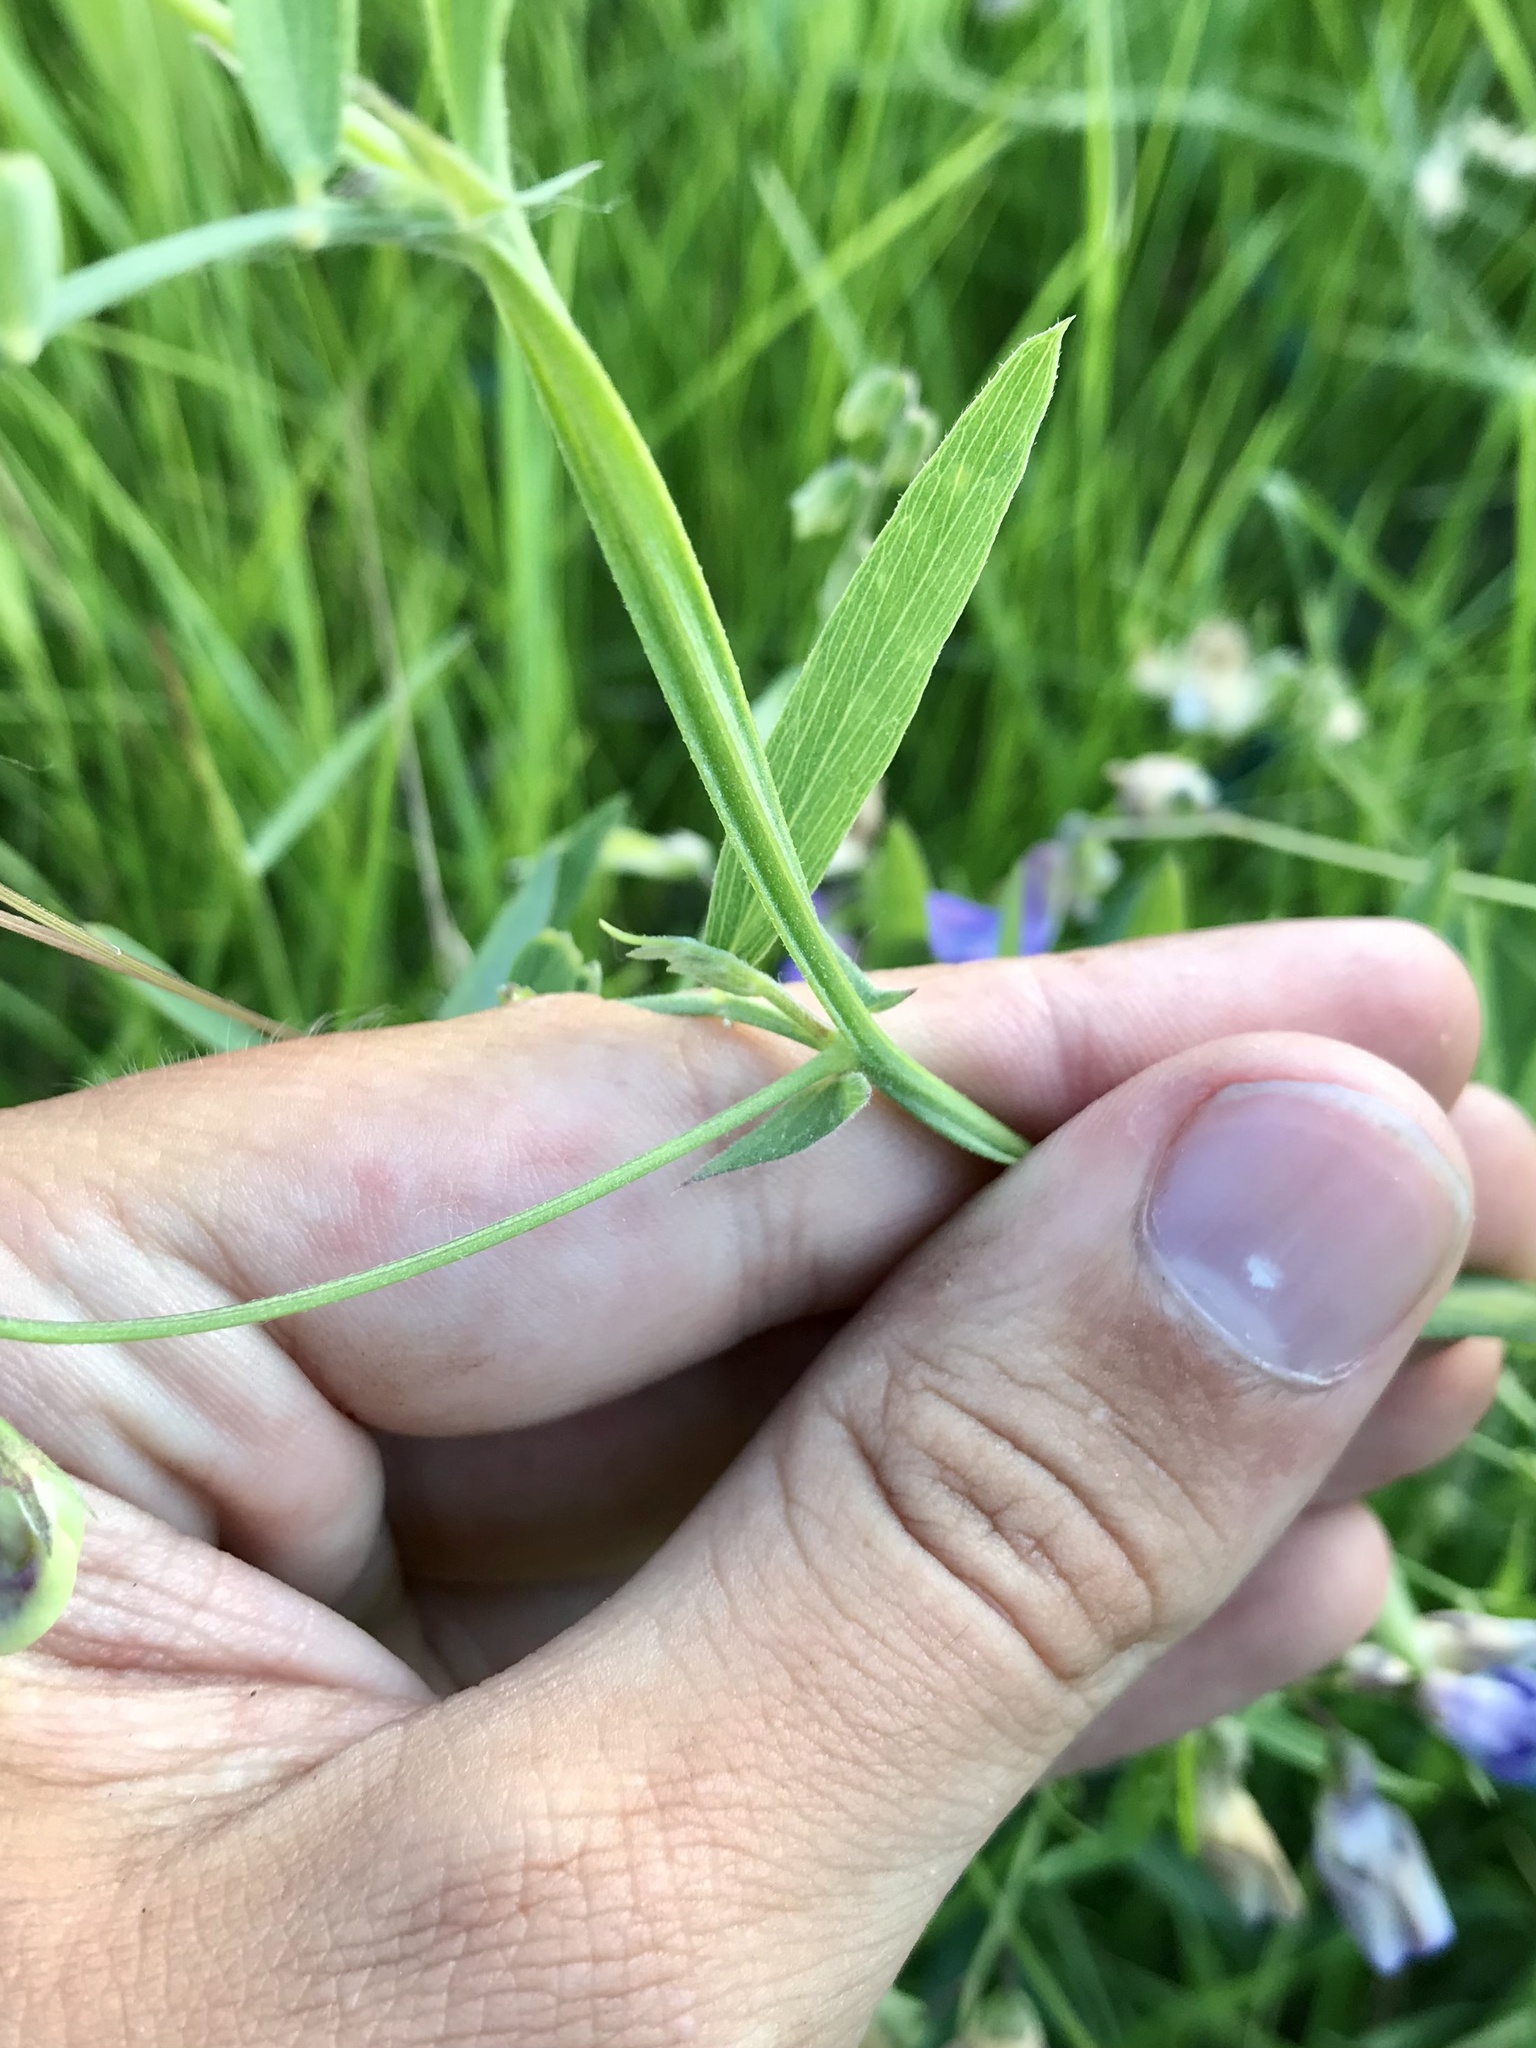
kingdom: Plantae
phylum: Tracheophyta
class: Magnoliopsida
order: Fabales
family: Fabaceae
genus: Lathyrus
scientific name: Lathyrus palustris
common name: Marsh pea
